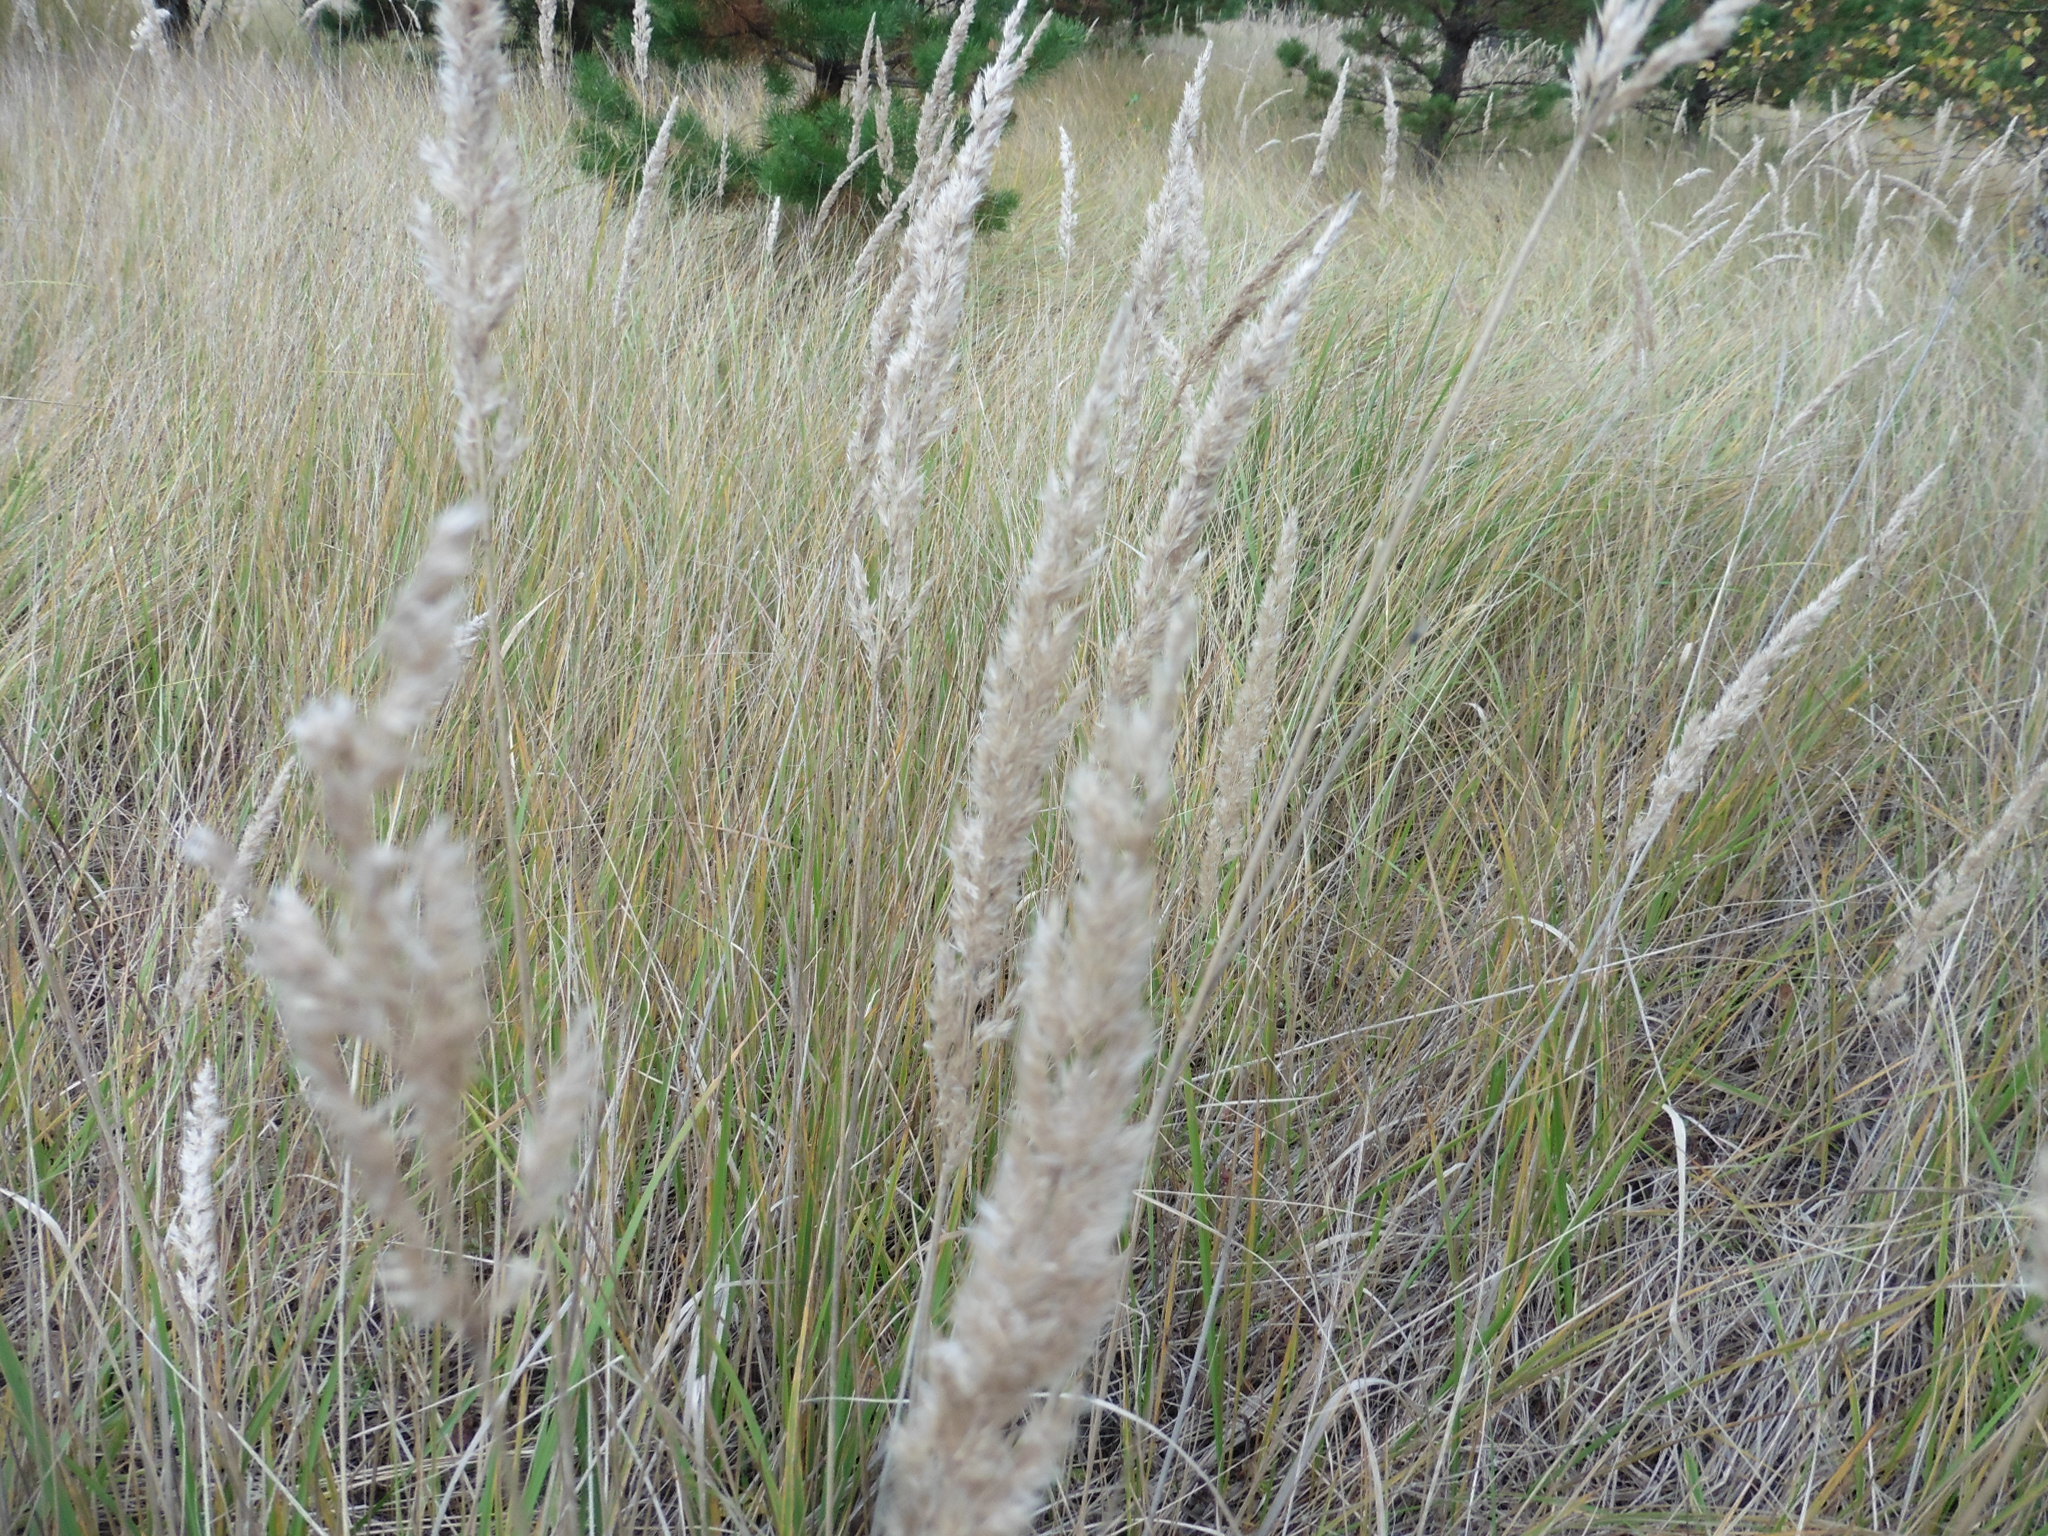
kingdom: Plantae
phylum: Tracheophyta
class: Liliopsida
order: Poales
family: Poaceae
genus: Calamagrostis
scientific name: Calamagrostis epigejos
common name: Wood small-reed
